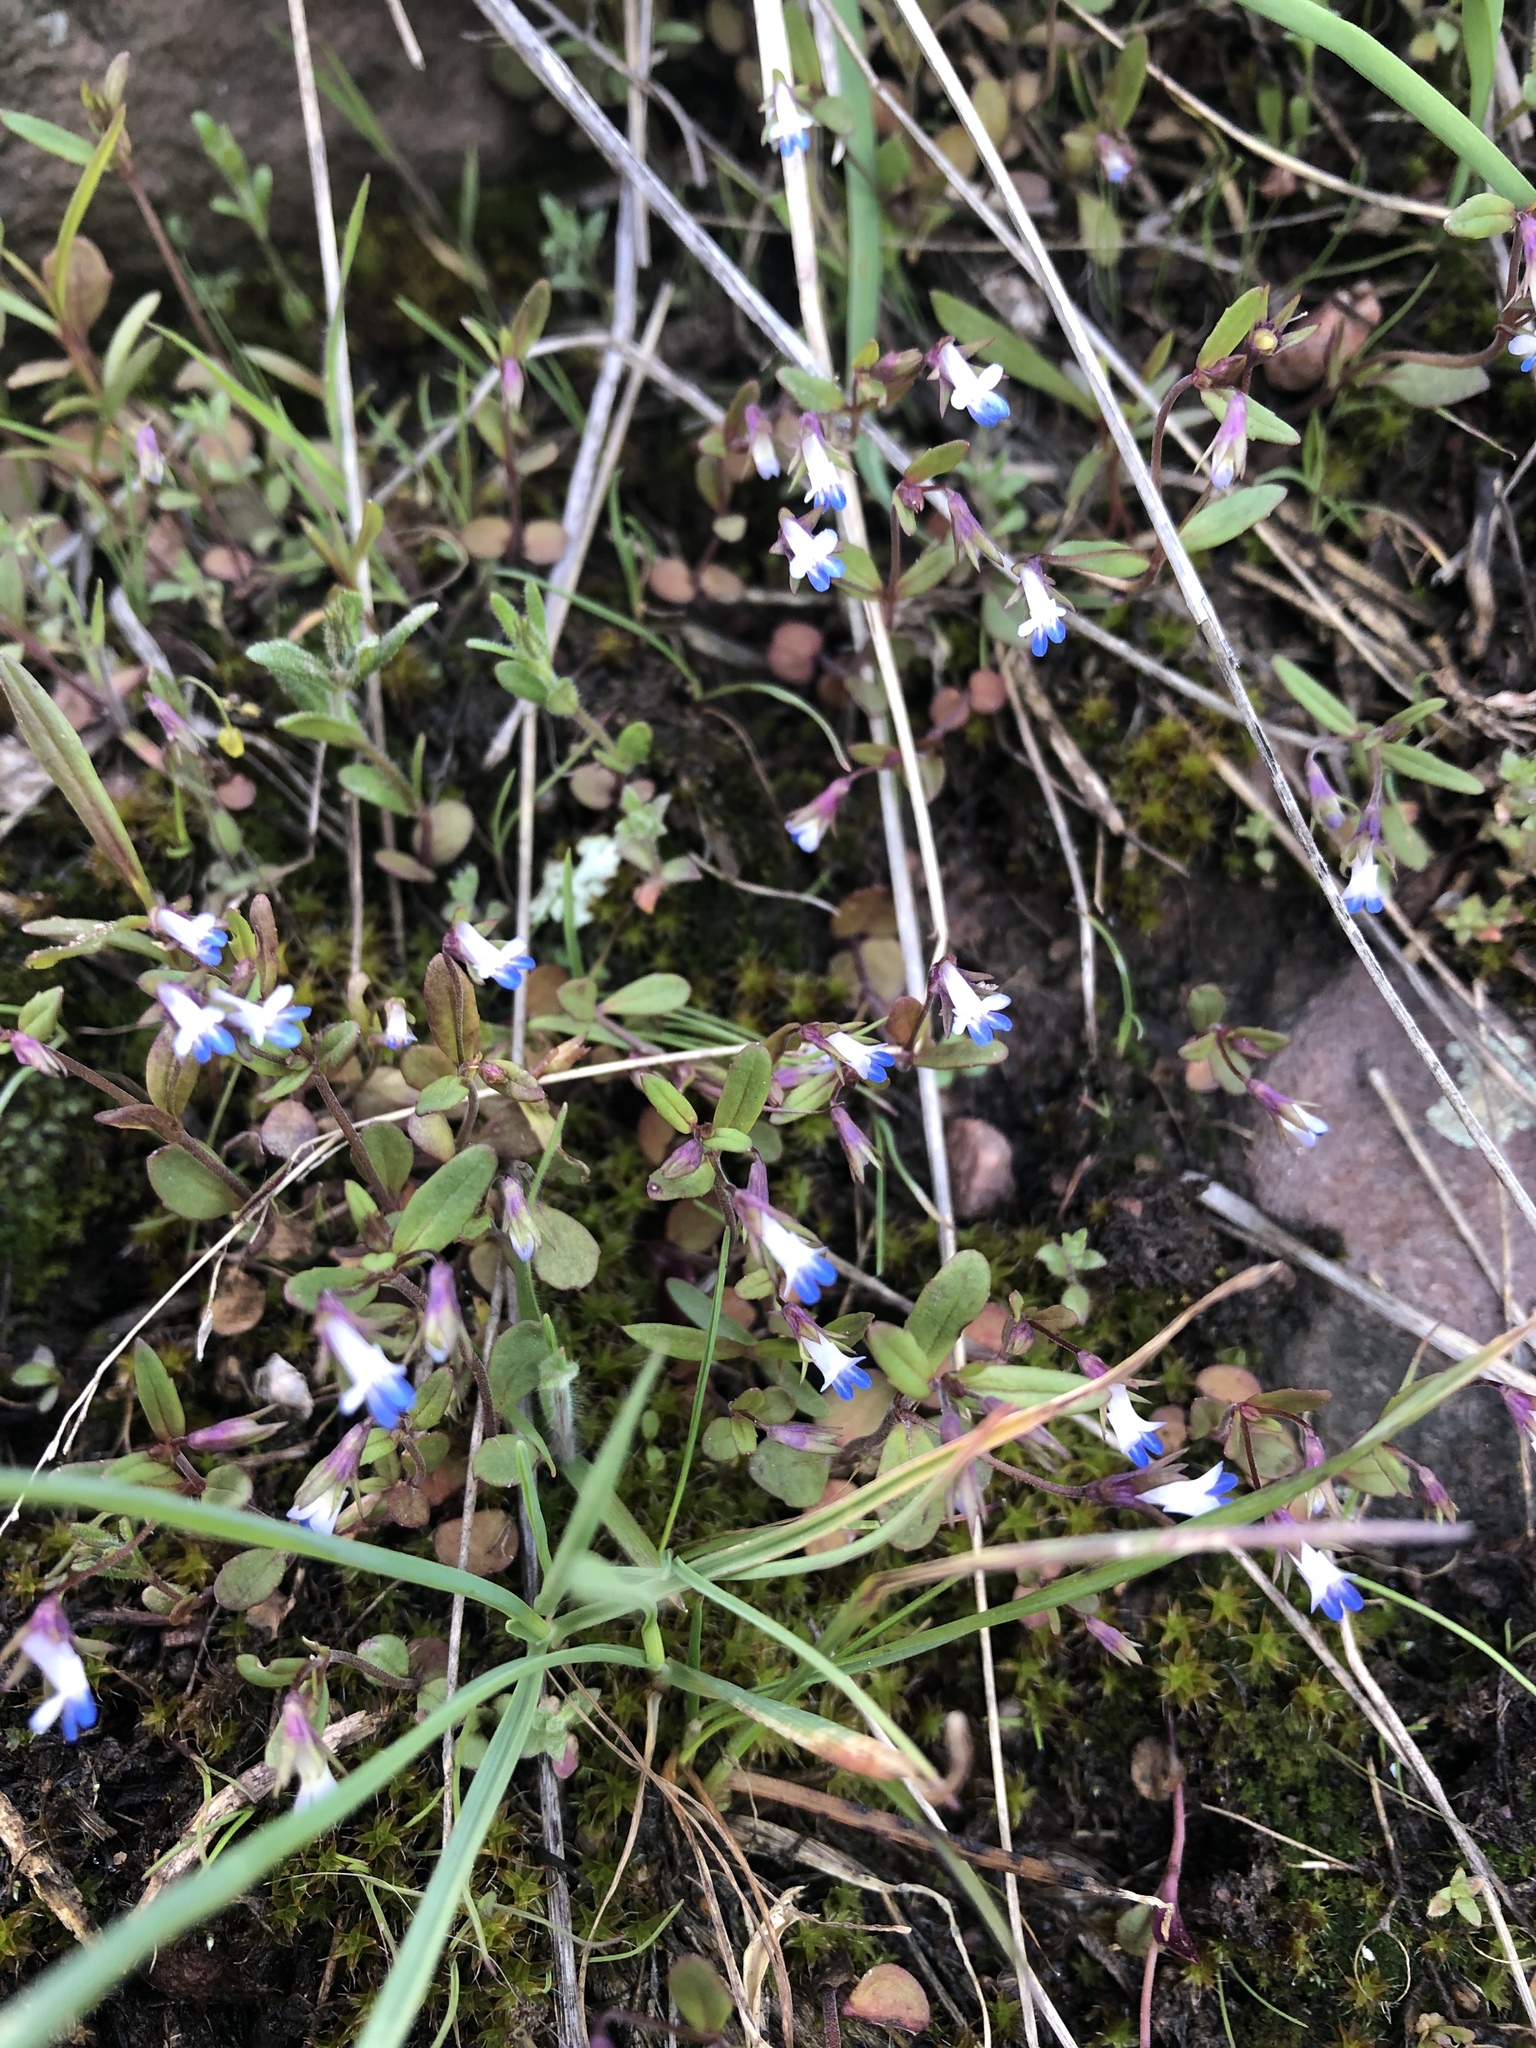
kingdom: Plantae
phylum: Tracheophyta
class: Magnoliopsida
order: Lamiales
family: Plantaginaceae
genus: Collinsia
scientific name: Collinsia parviflora
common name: Blue-lips
